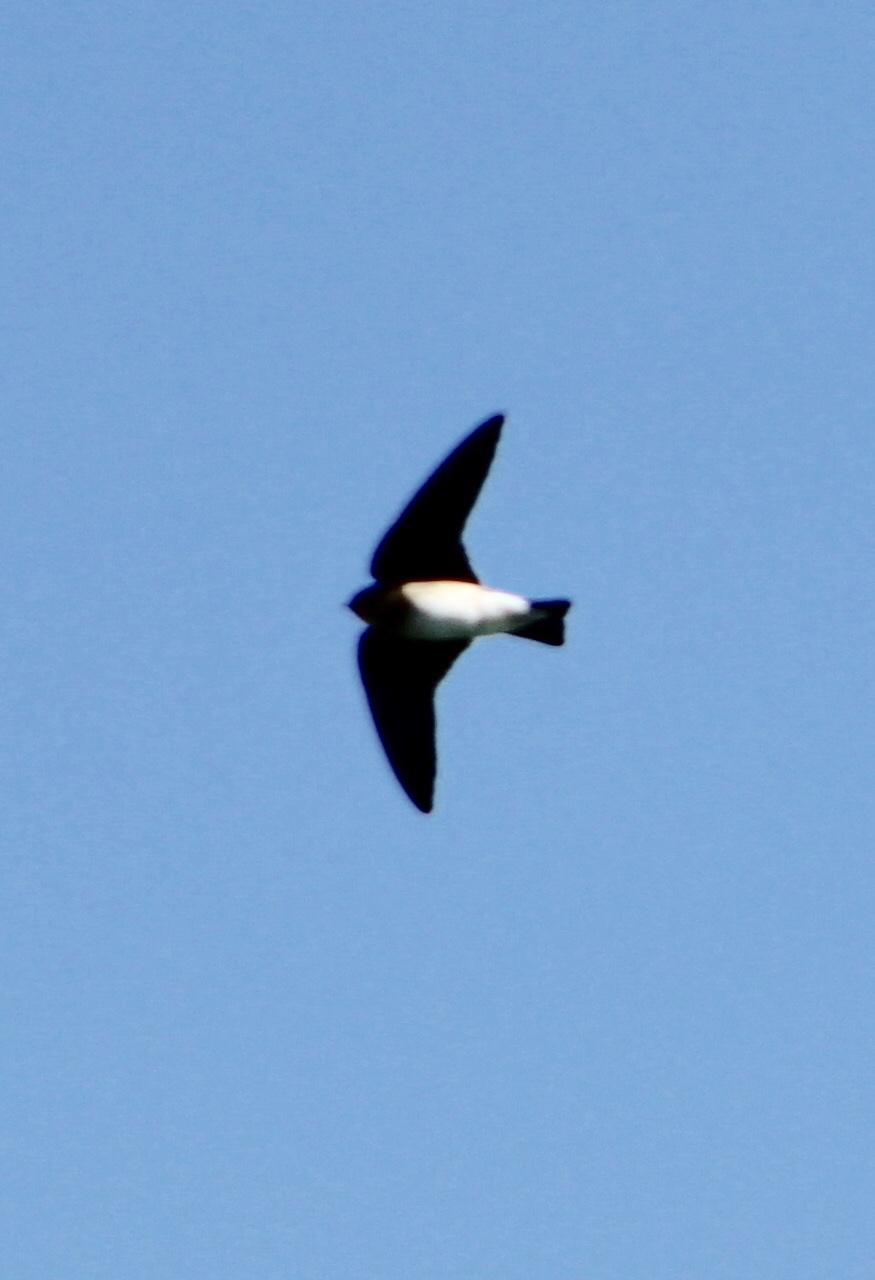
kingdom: Animalia
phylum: Chordata
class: Aves
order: Passeriformes
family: Hirundinidae
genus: Stelgidopteryx
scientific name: Stelgidopteryx serripennis
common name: Northern rough-winged swallow
